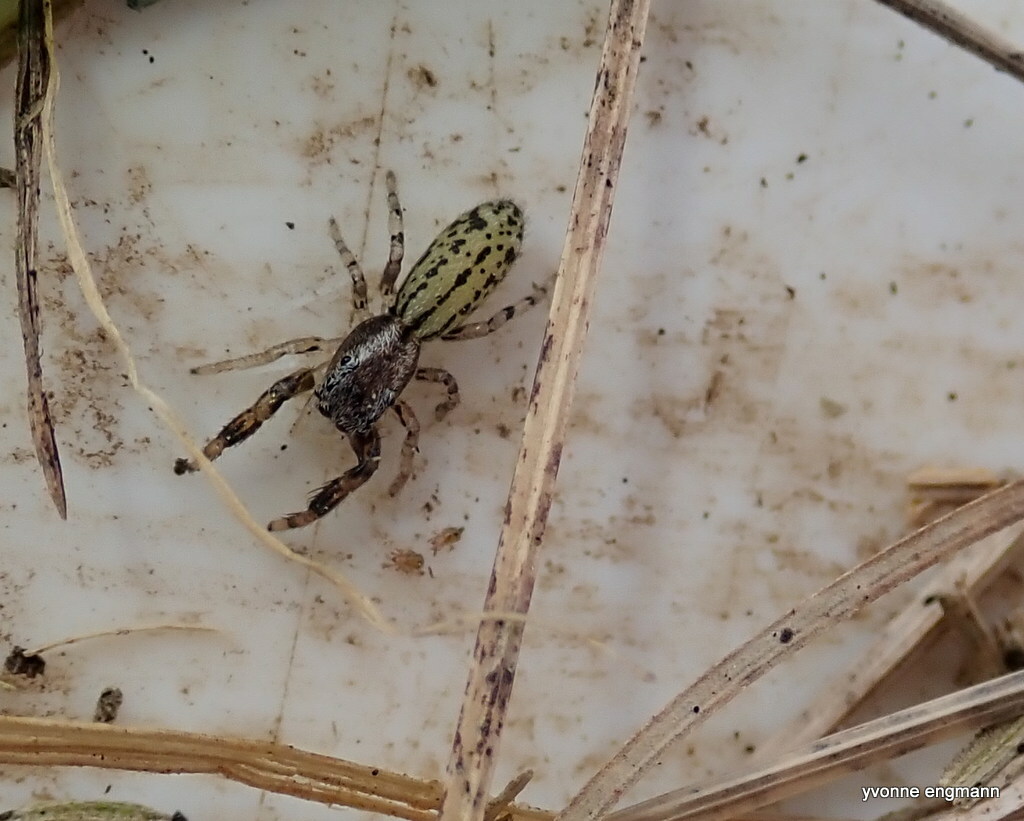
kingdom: Animalia
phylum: Arthropoda
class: Arachnida
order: Araneae
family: Salticidae
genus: Marpissa
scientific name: Marpissa nivoyi
